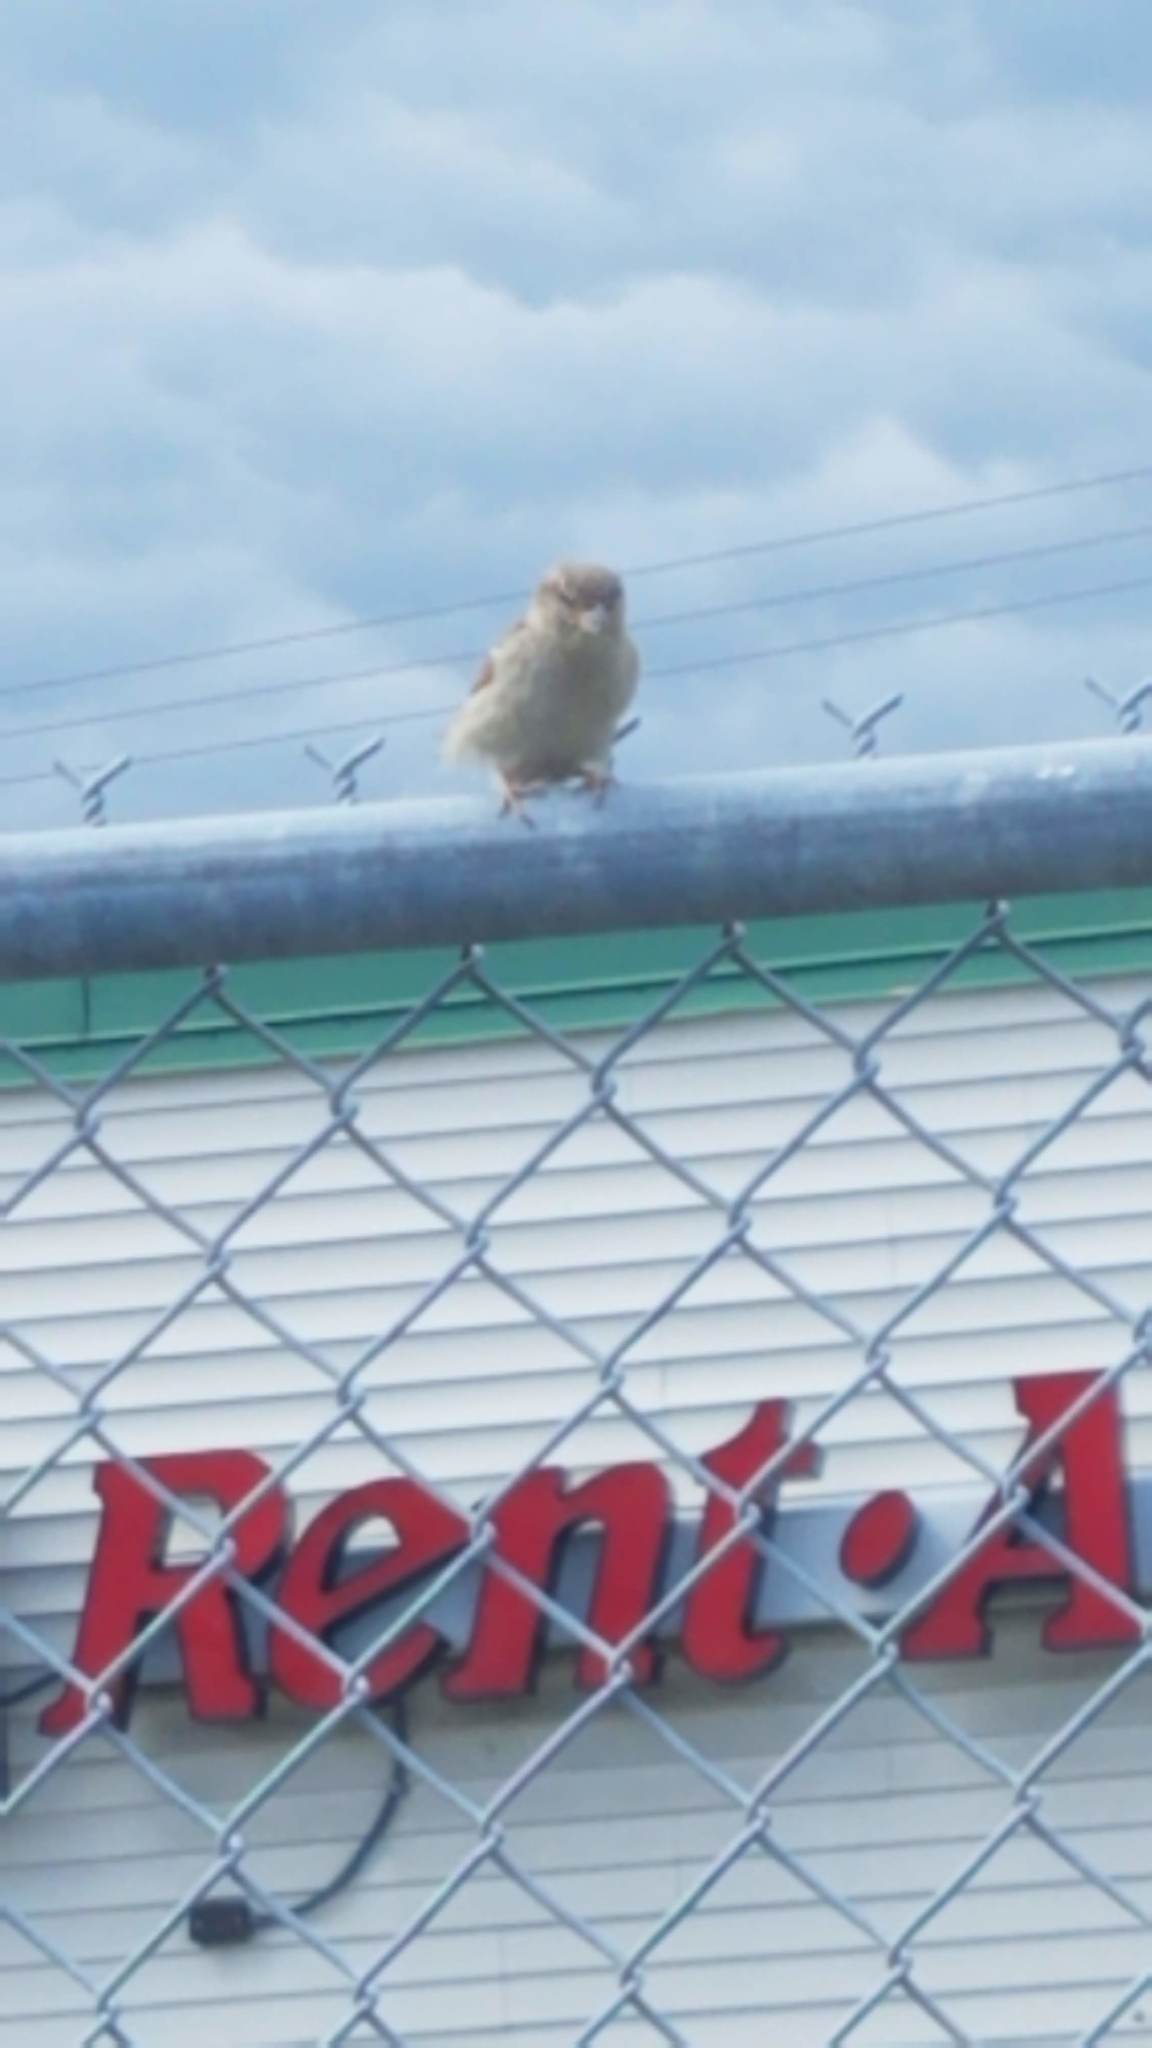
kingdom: Animalia
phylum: Chordata
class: Aves
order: Passeriformes
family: Passeridae
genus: Passer
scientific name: Passer domesticus
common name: House sparrow
